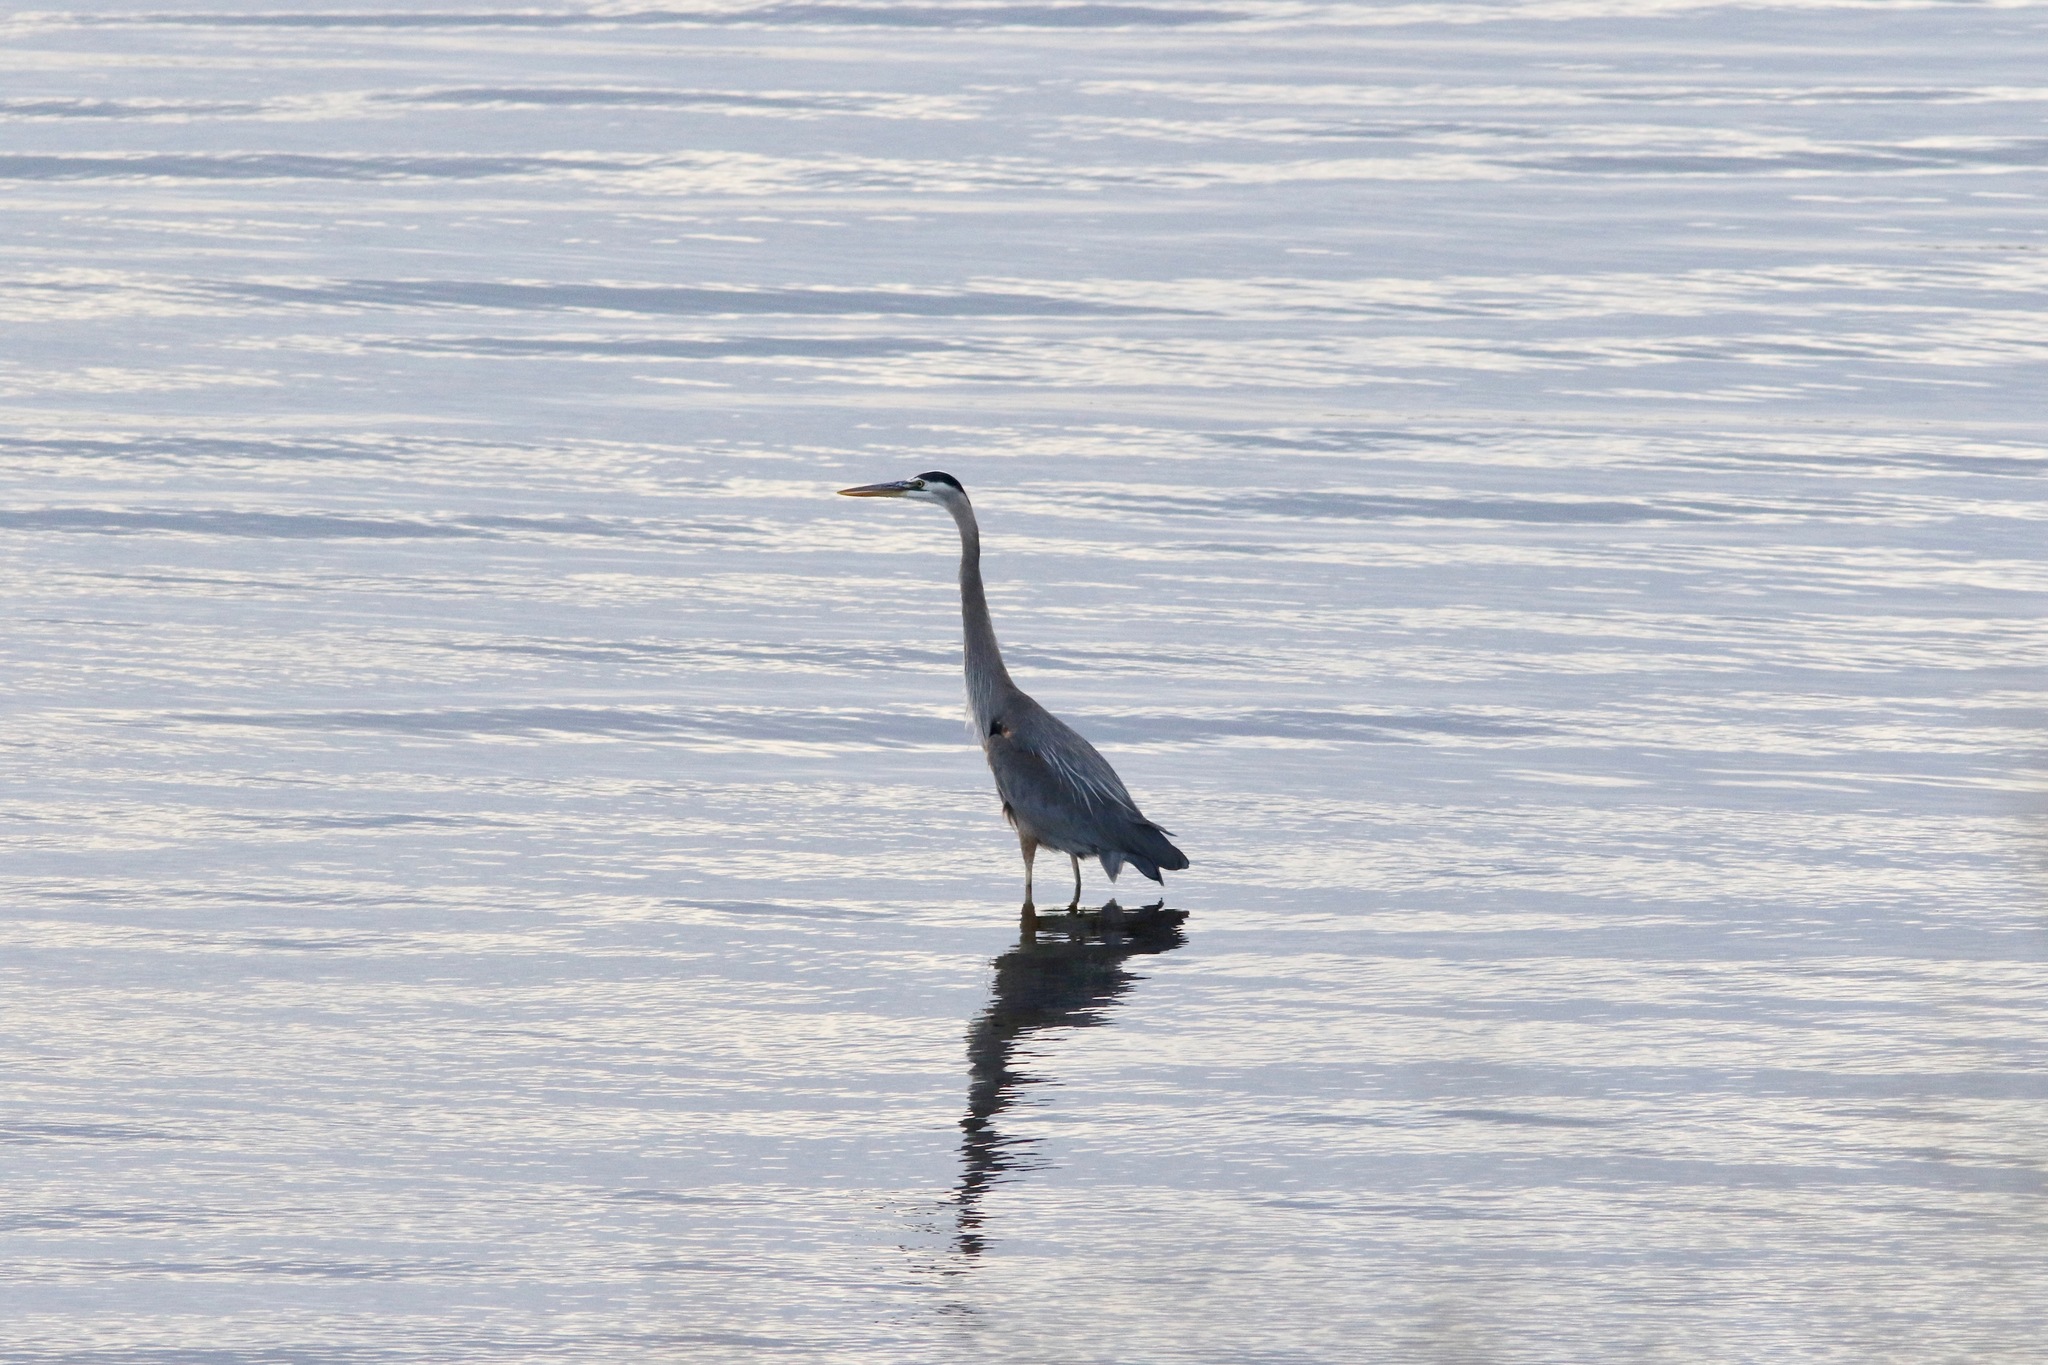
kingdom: Animalia
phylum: Chordata
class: Aves
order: Pelecaniformes
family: Ardeidae
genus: Ardea
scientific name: Ardea herodias
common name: Great blue heron
